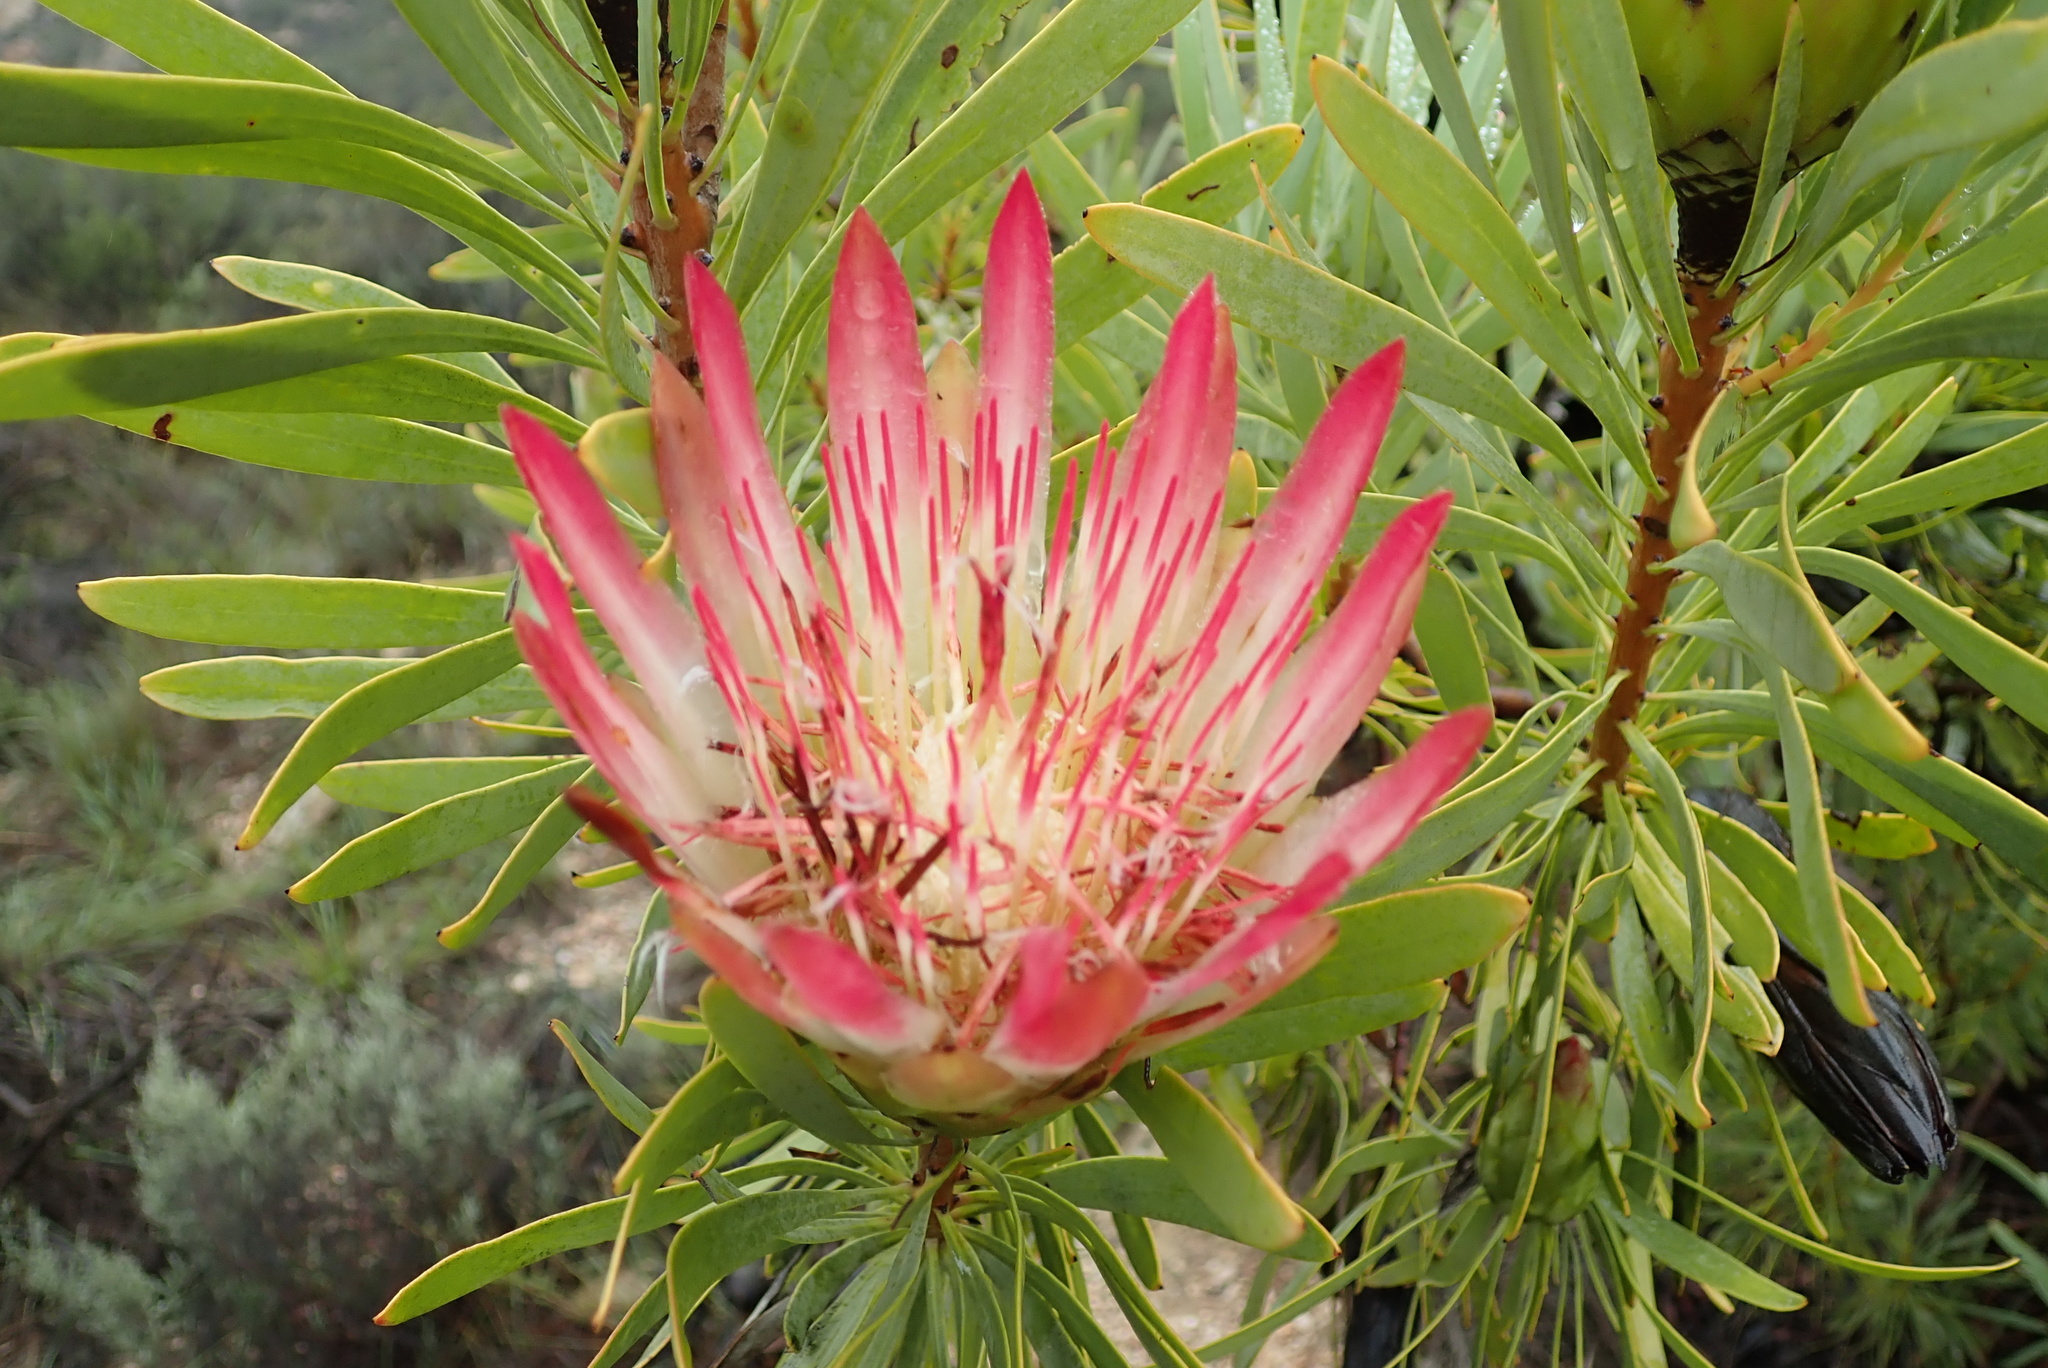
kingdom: Plantae
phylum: Tracheophyta
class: Magnoliopsida
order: Proteales
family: Proteaceae
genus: Protea
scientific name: Protea repens
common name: Sugarbush
